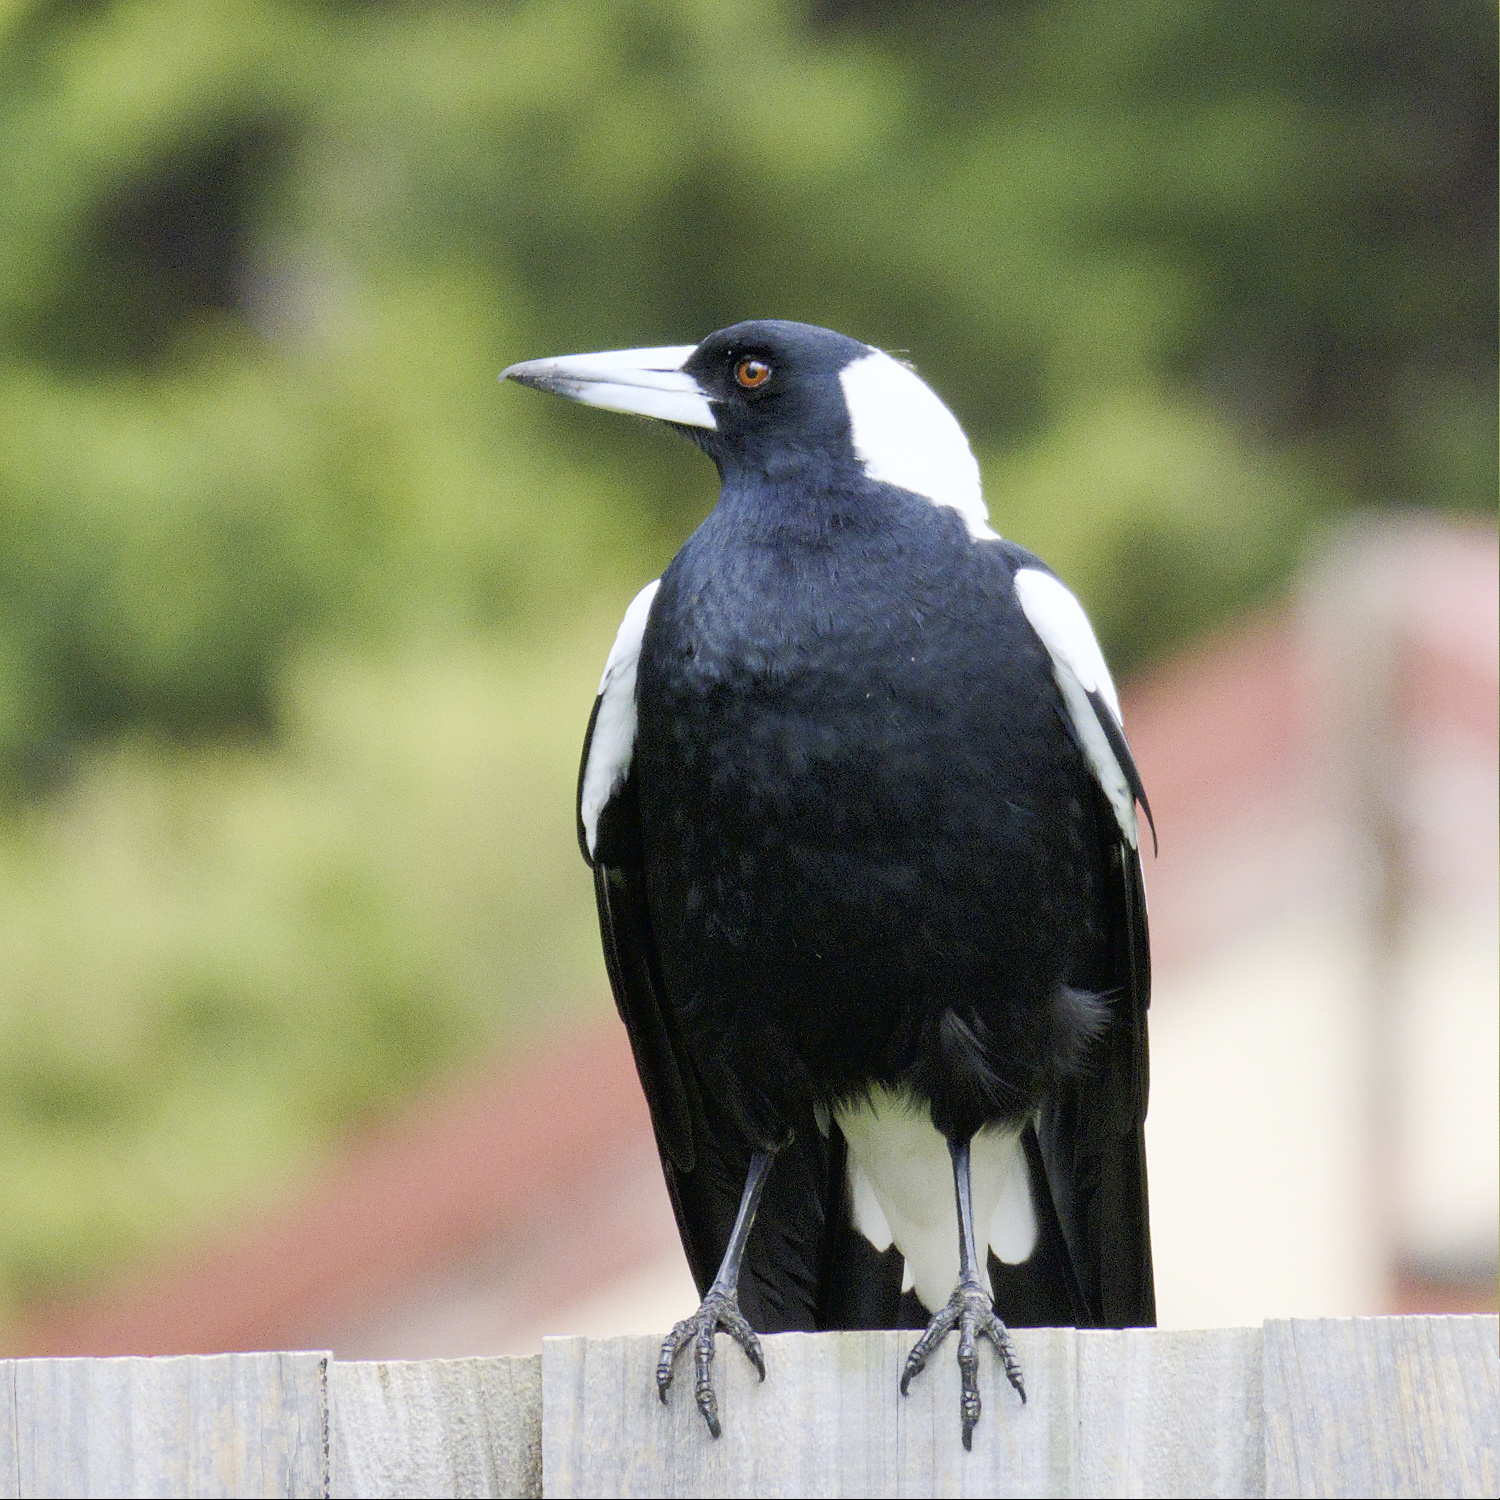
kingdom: Animalia
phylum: Chordata
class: Aves
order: Passeriformes
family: Cracticidae
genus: Gymnorhina
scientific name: Gymnorhina tibicen
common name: Australian magpie
